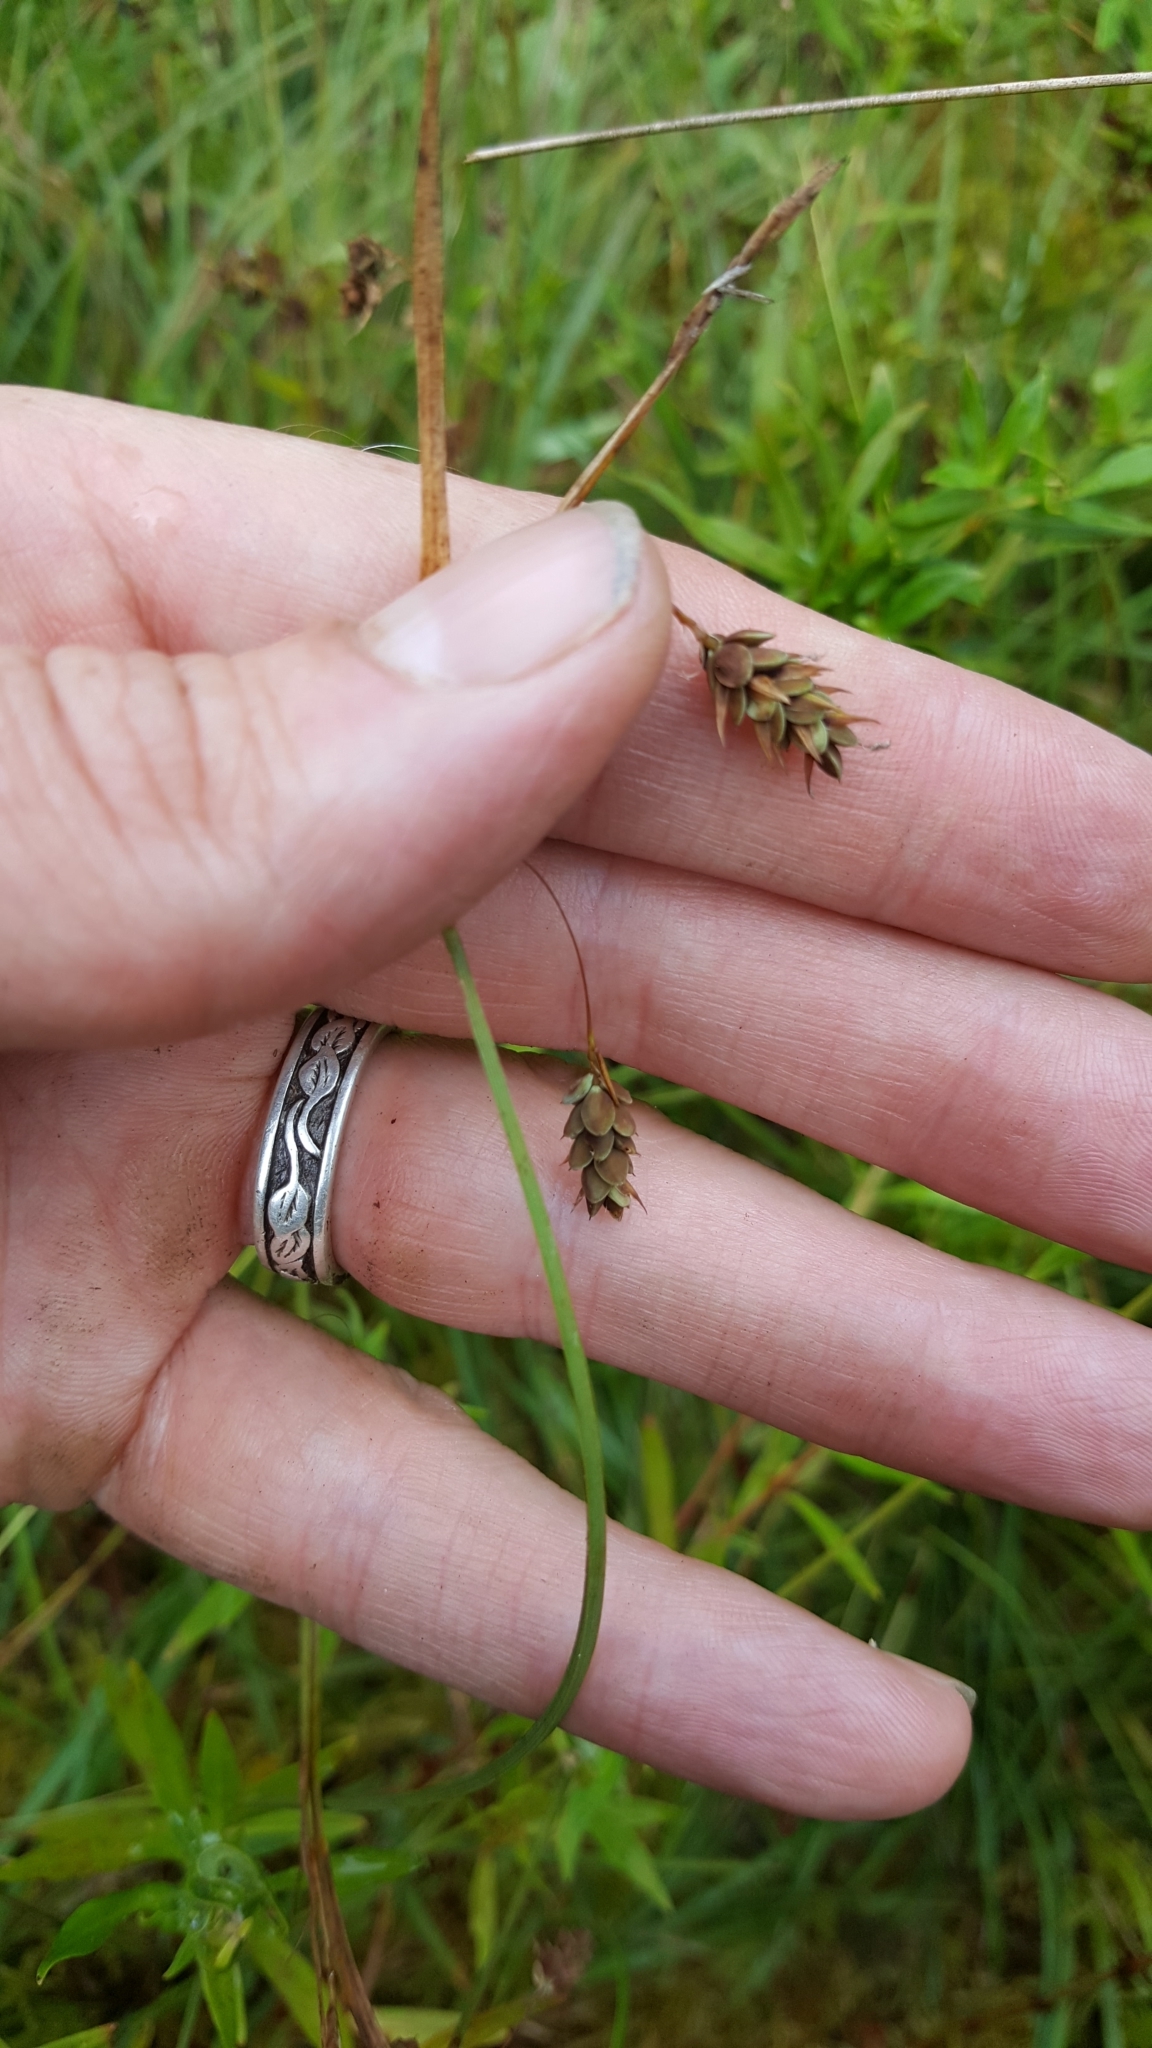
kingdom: Plantae
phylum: Tracheophyta
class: Liliopsida
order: Poales
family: Cyperaceae
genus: Carex
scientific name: Carex magellanica
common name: Bog sedge
